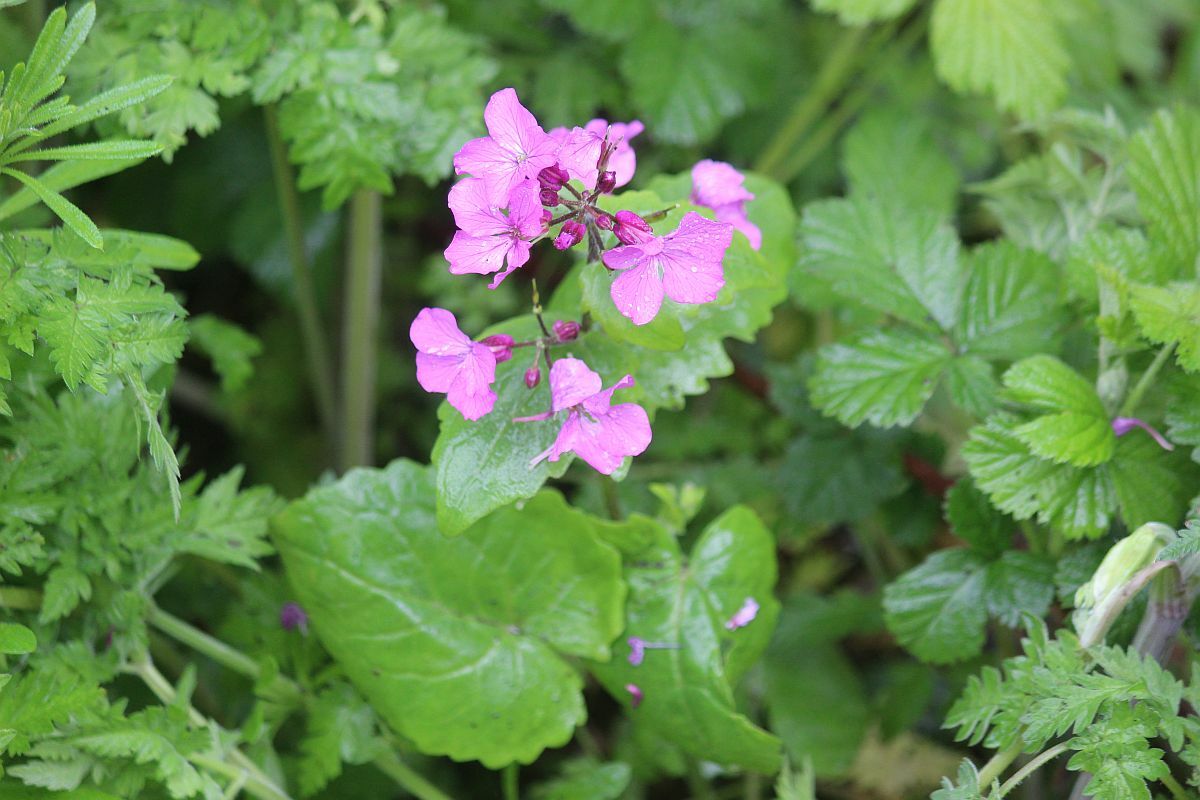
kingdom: Plantae
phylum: Tracheophyta
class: Magnoliopsida
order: Brassicales
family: Brassicaceae
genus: Lunaria
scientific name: Lunaria annua
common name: Honesty
